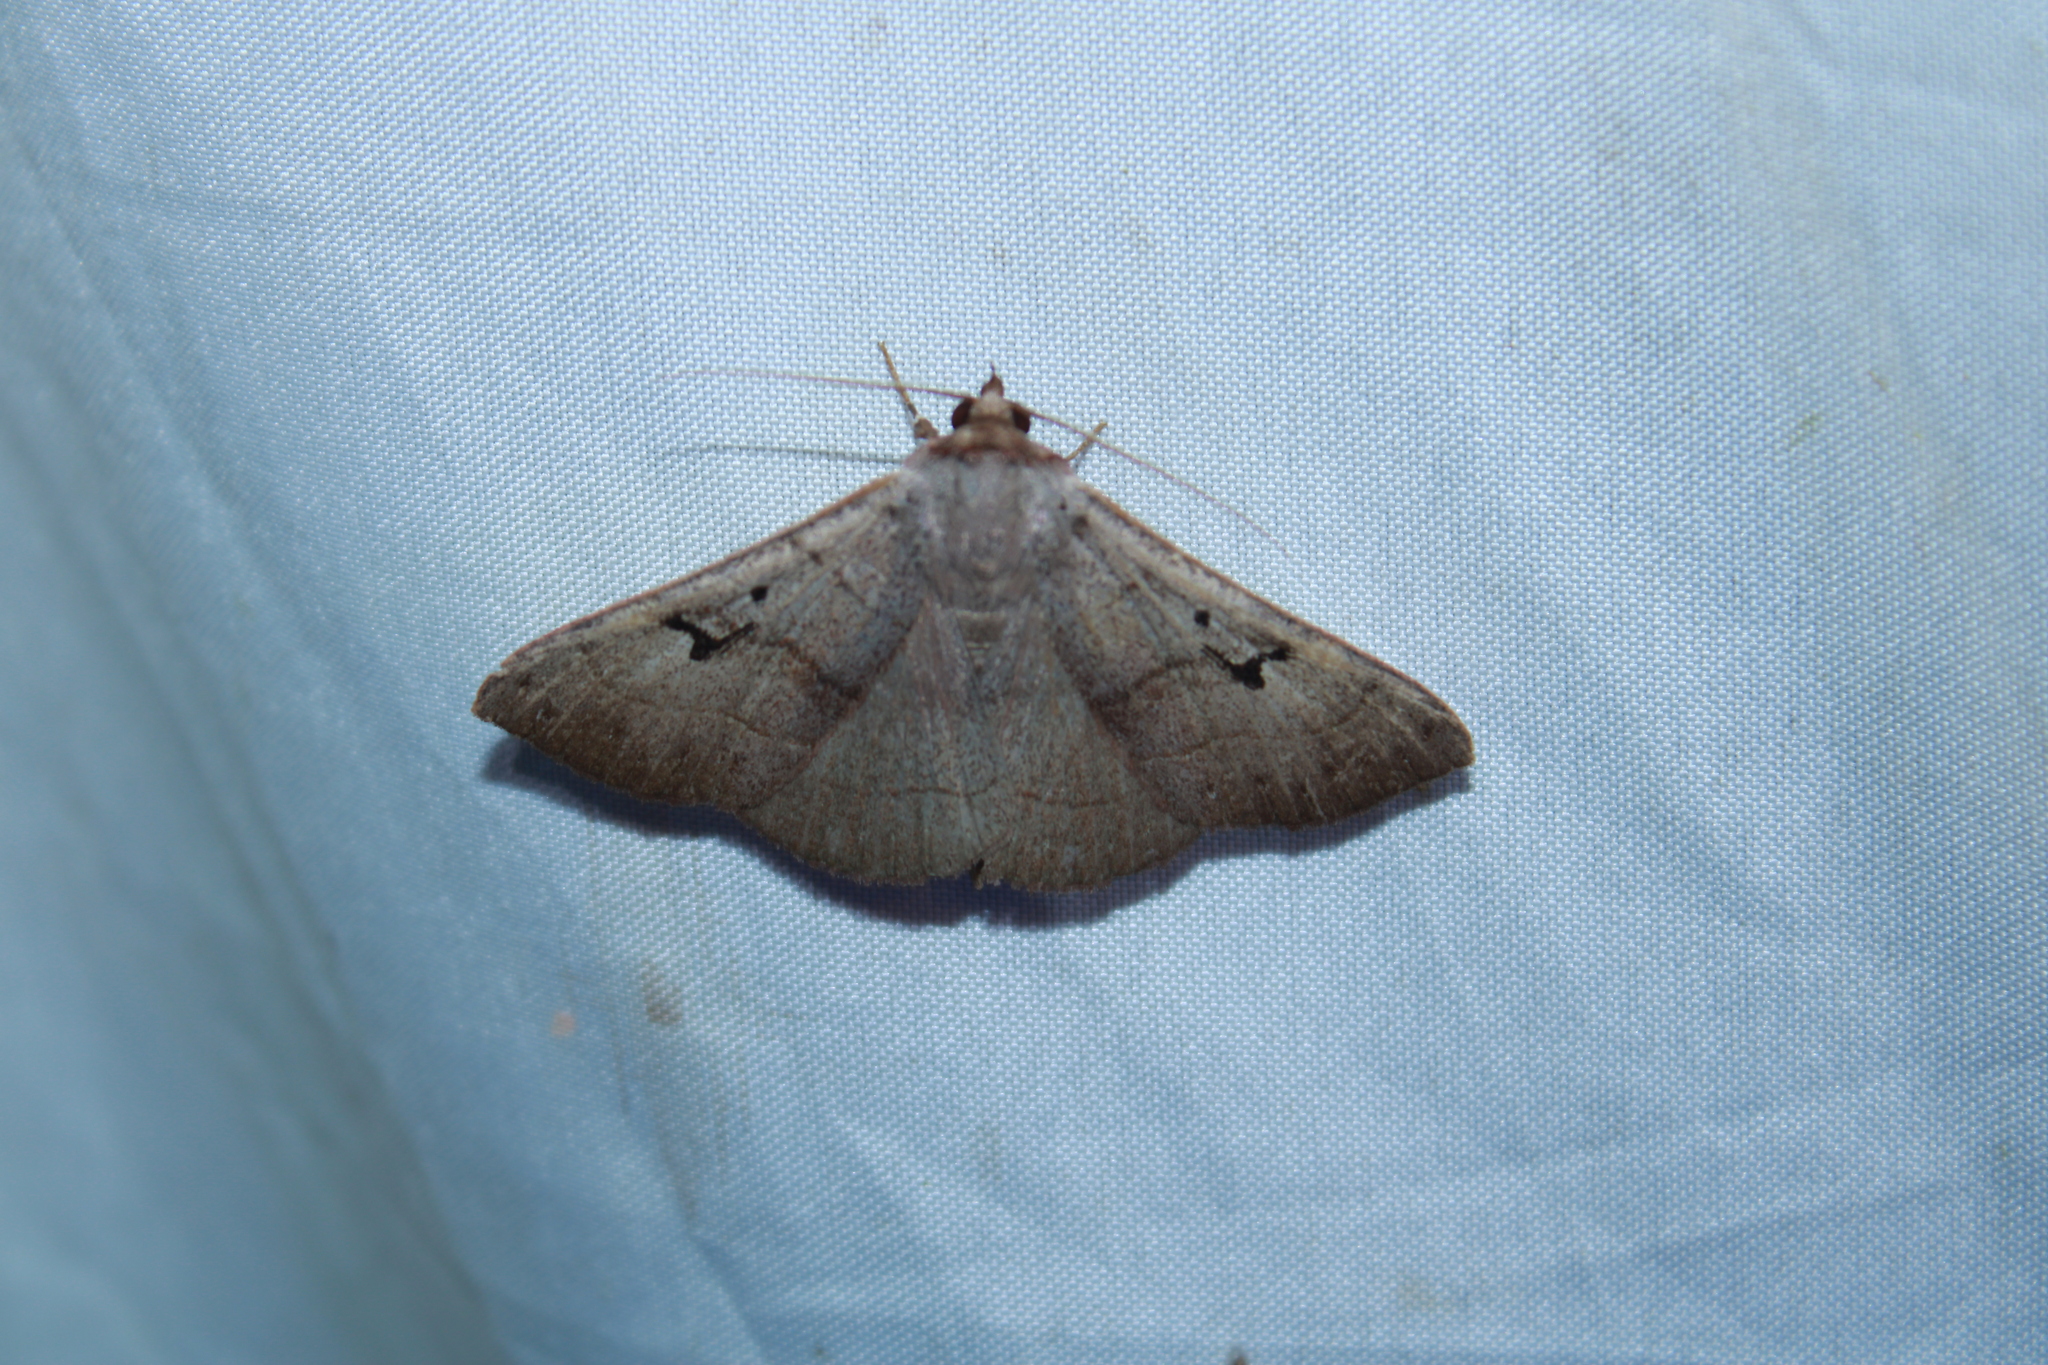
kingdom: Animalia
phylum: Arthropoda
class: Insecta
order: Lepidoptera
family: Erebidae
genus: Panopoda
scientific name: Panopoda carneicosta
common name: Brown panopoda moth
